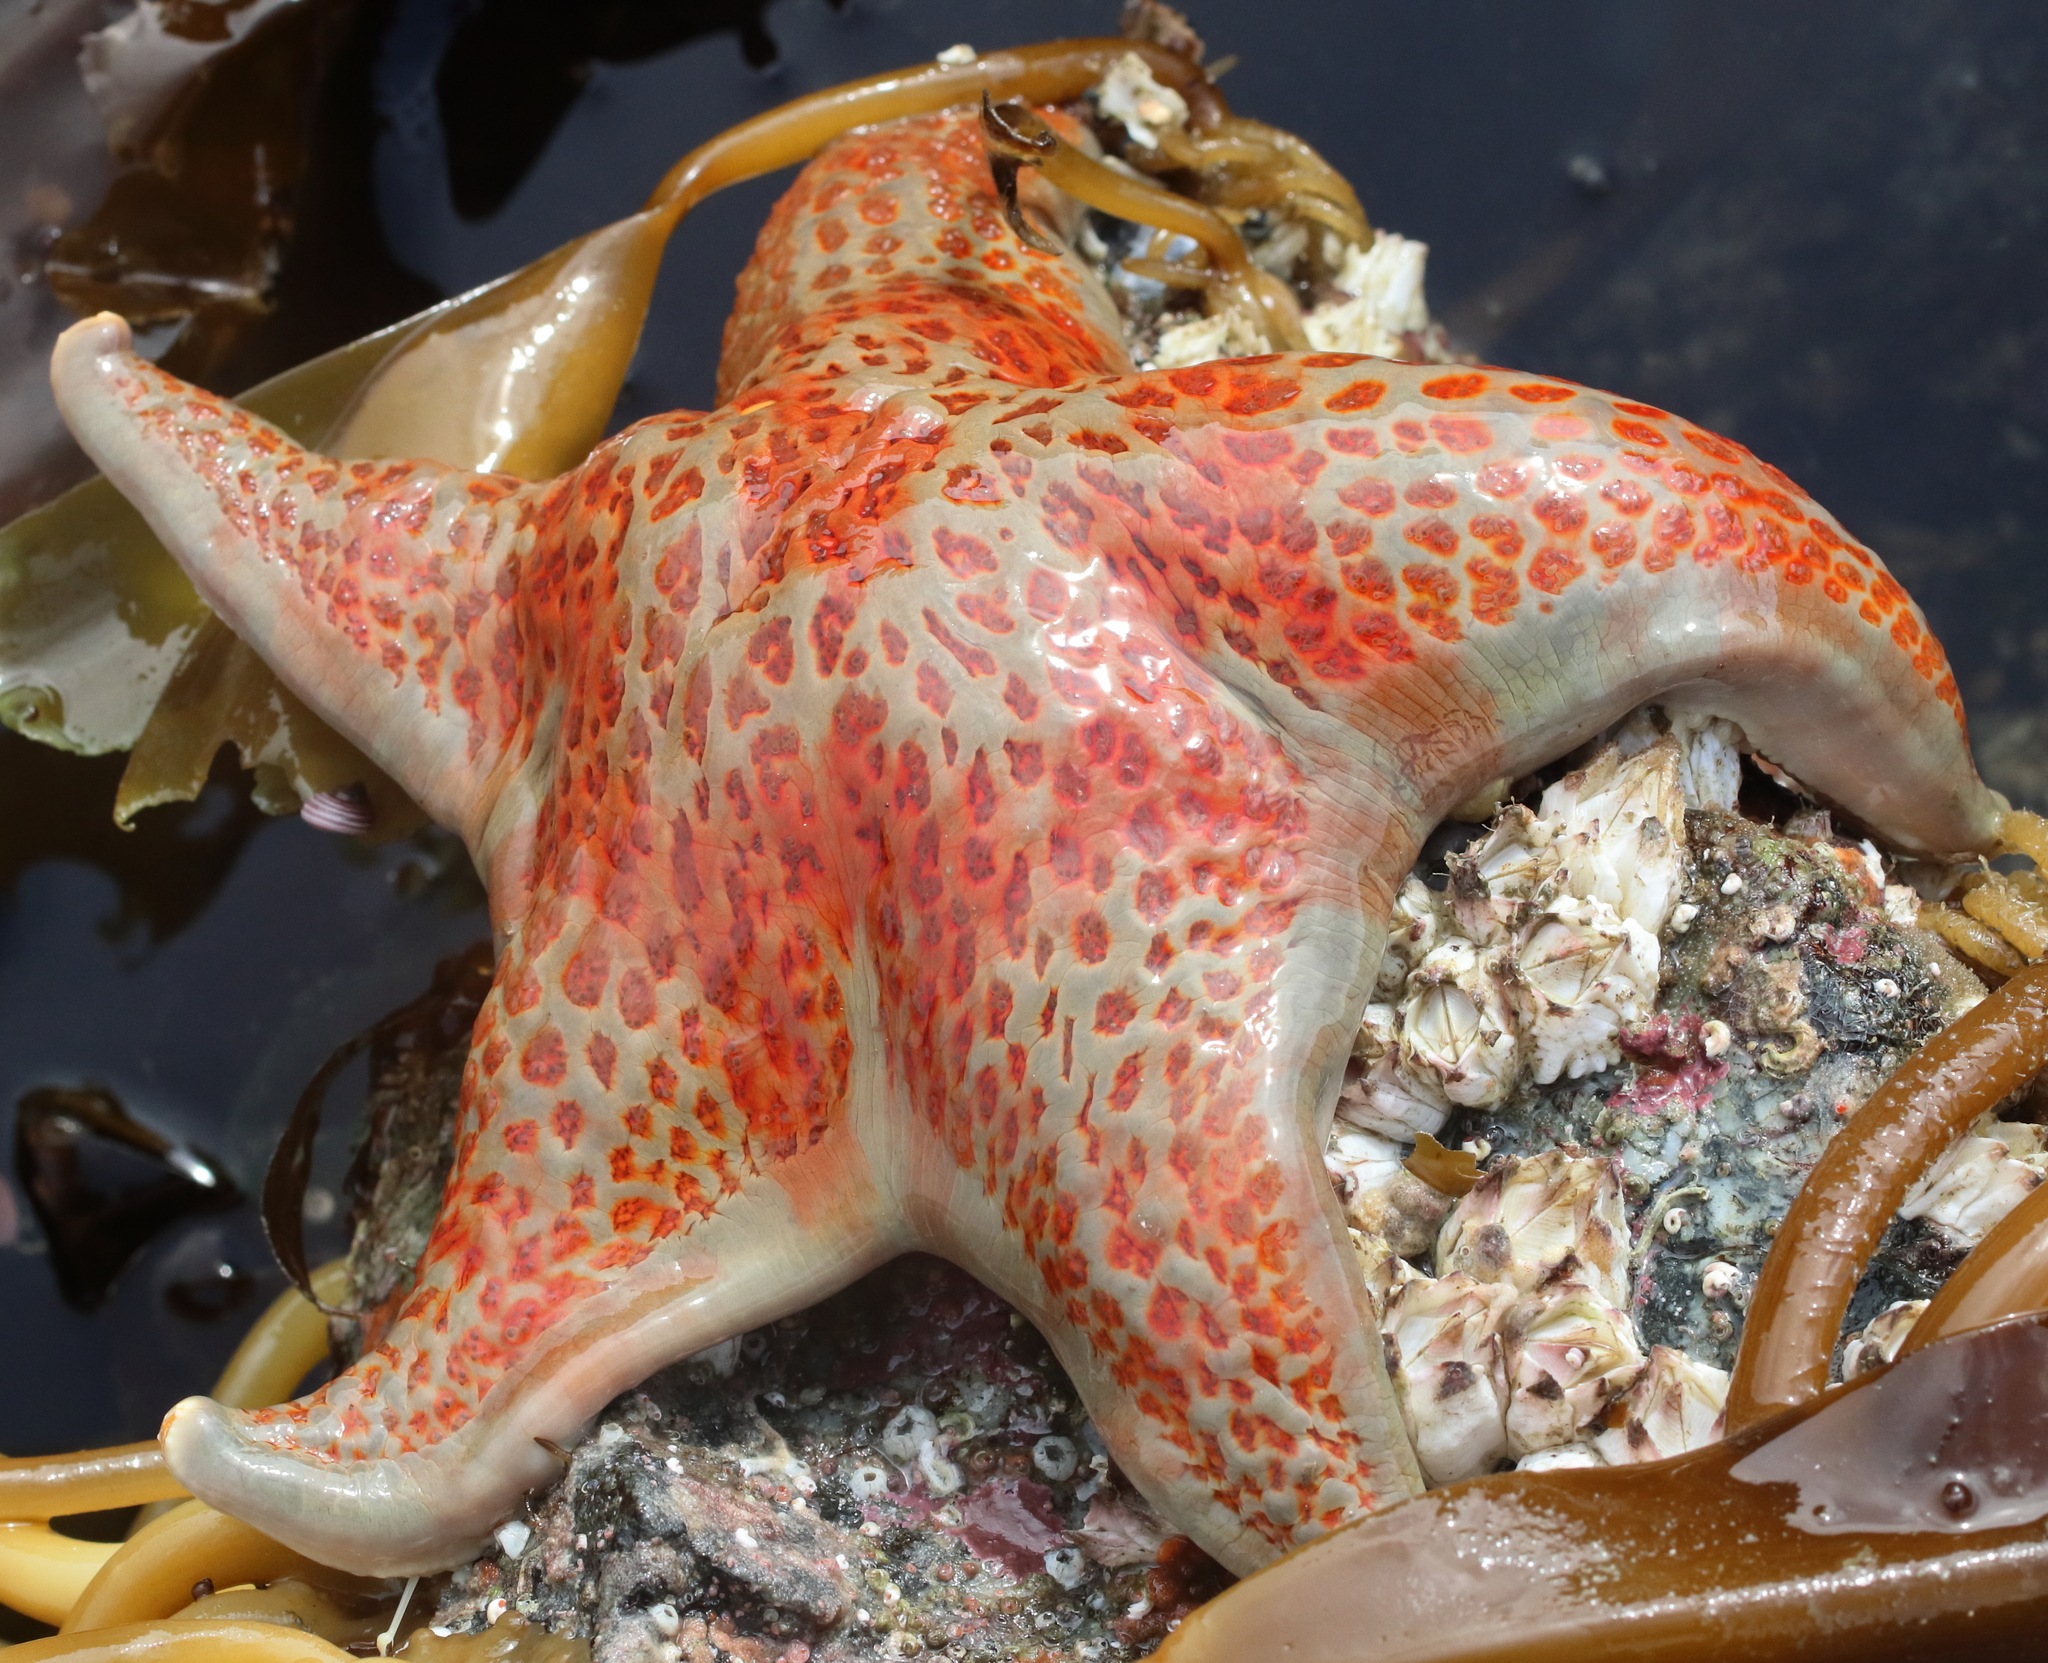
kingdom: Animalia
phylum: Echinodermata
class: Asteroidea
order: Valvatida
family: Asteropseidae
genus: Dermasterias
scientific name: Dermasterias imbricata
